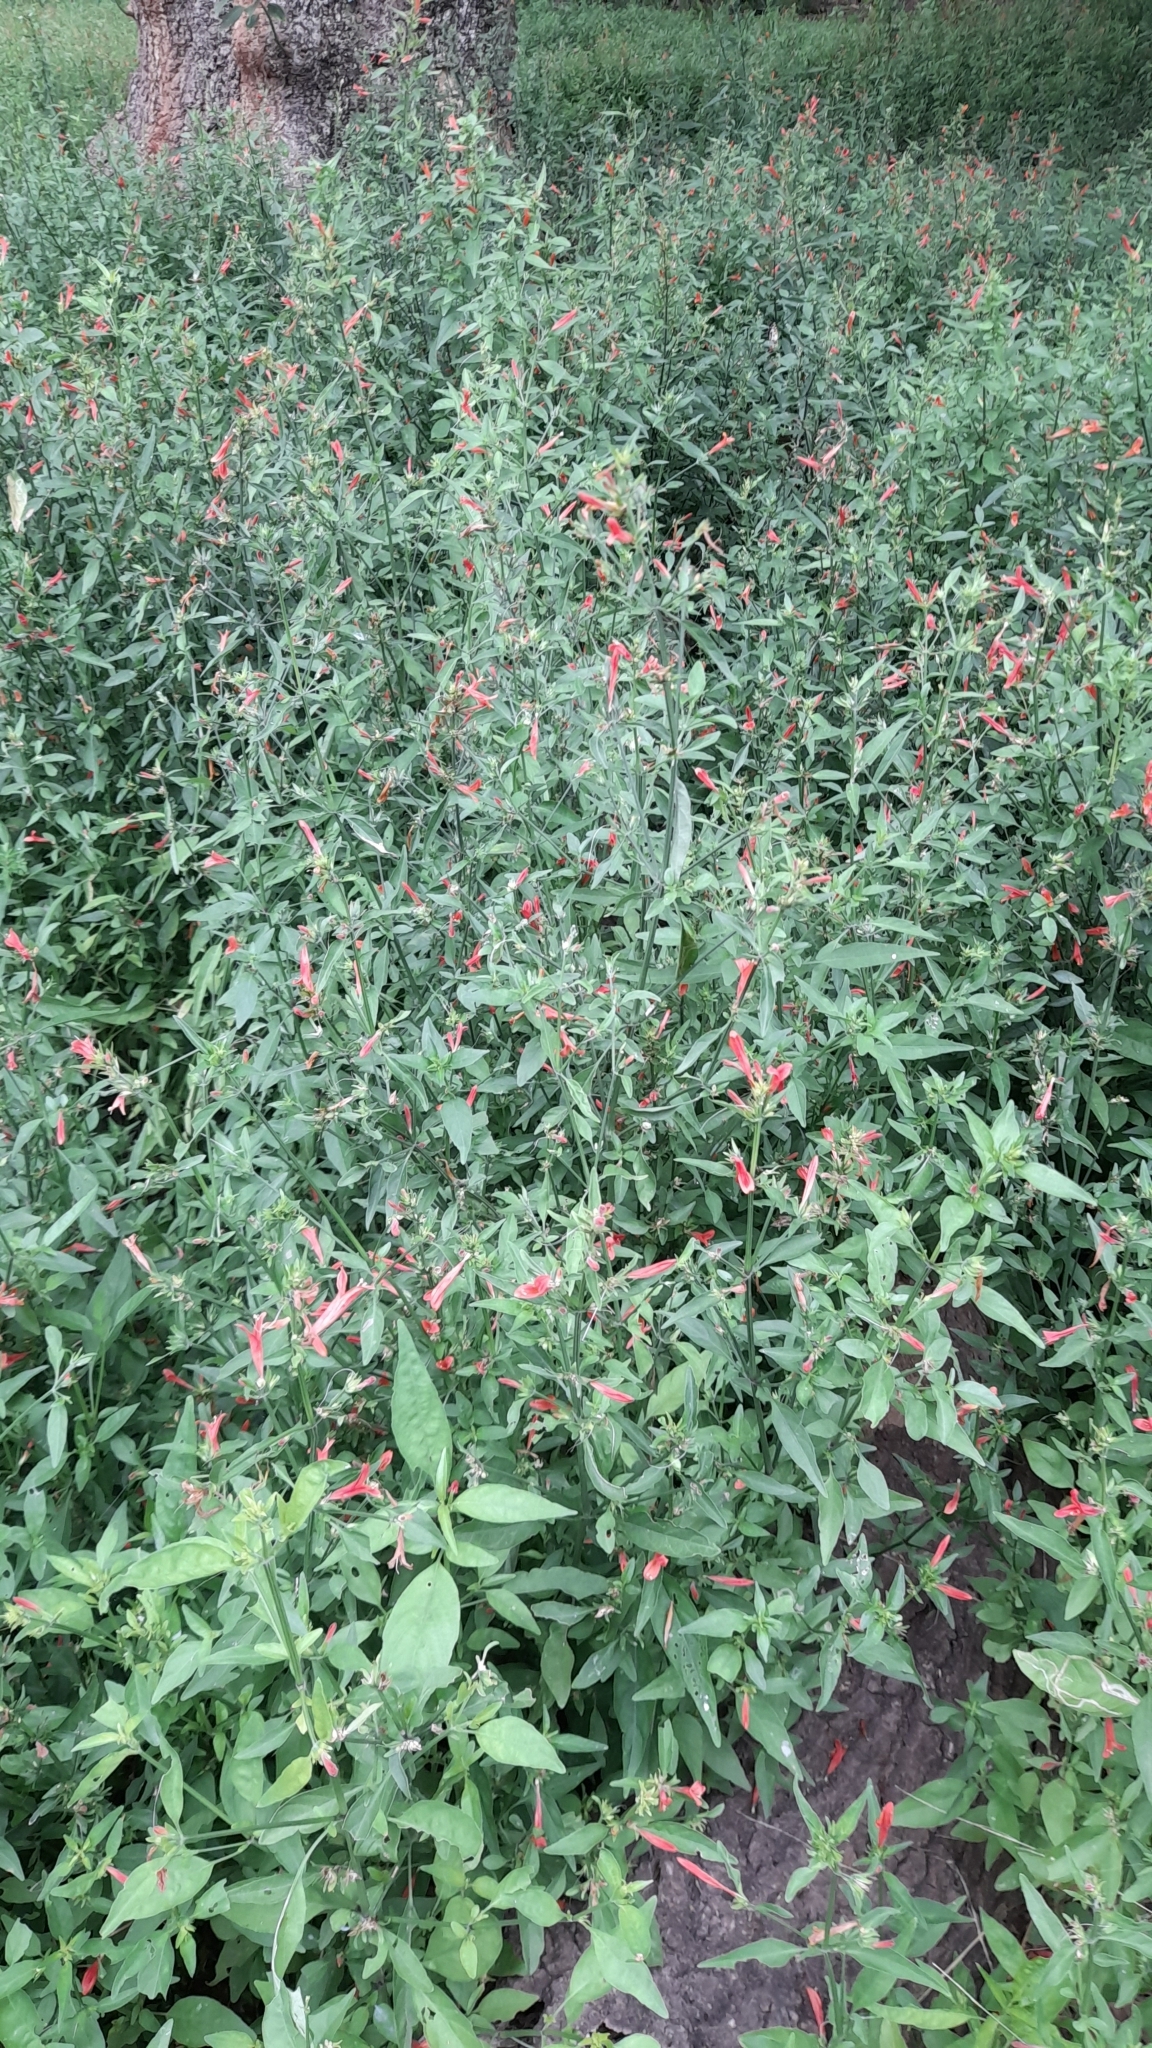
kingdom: Plantae
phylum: Tracheophyta
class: Magnoliopsida
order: Lamiales
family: Acanthaceae
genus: Dicliptera
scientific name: Dicliptera squarrosa
